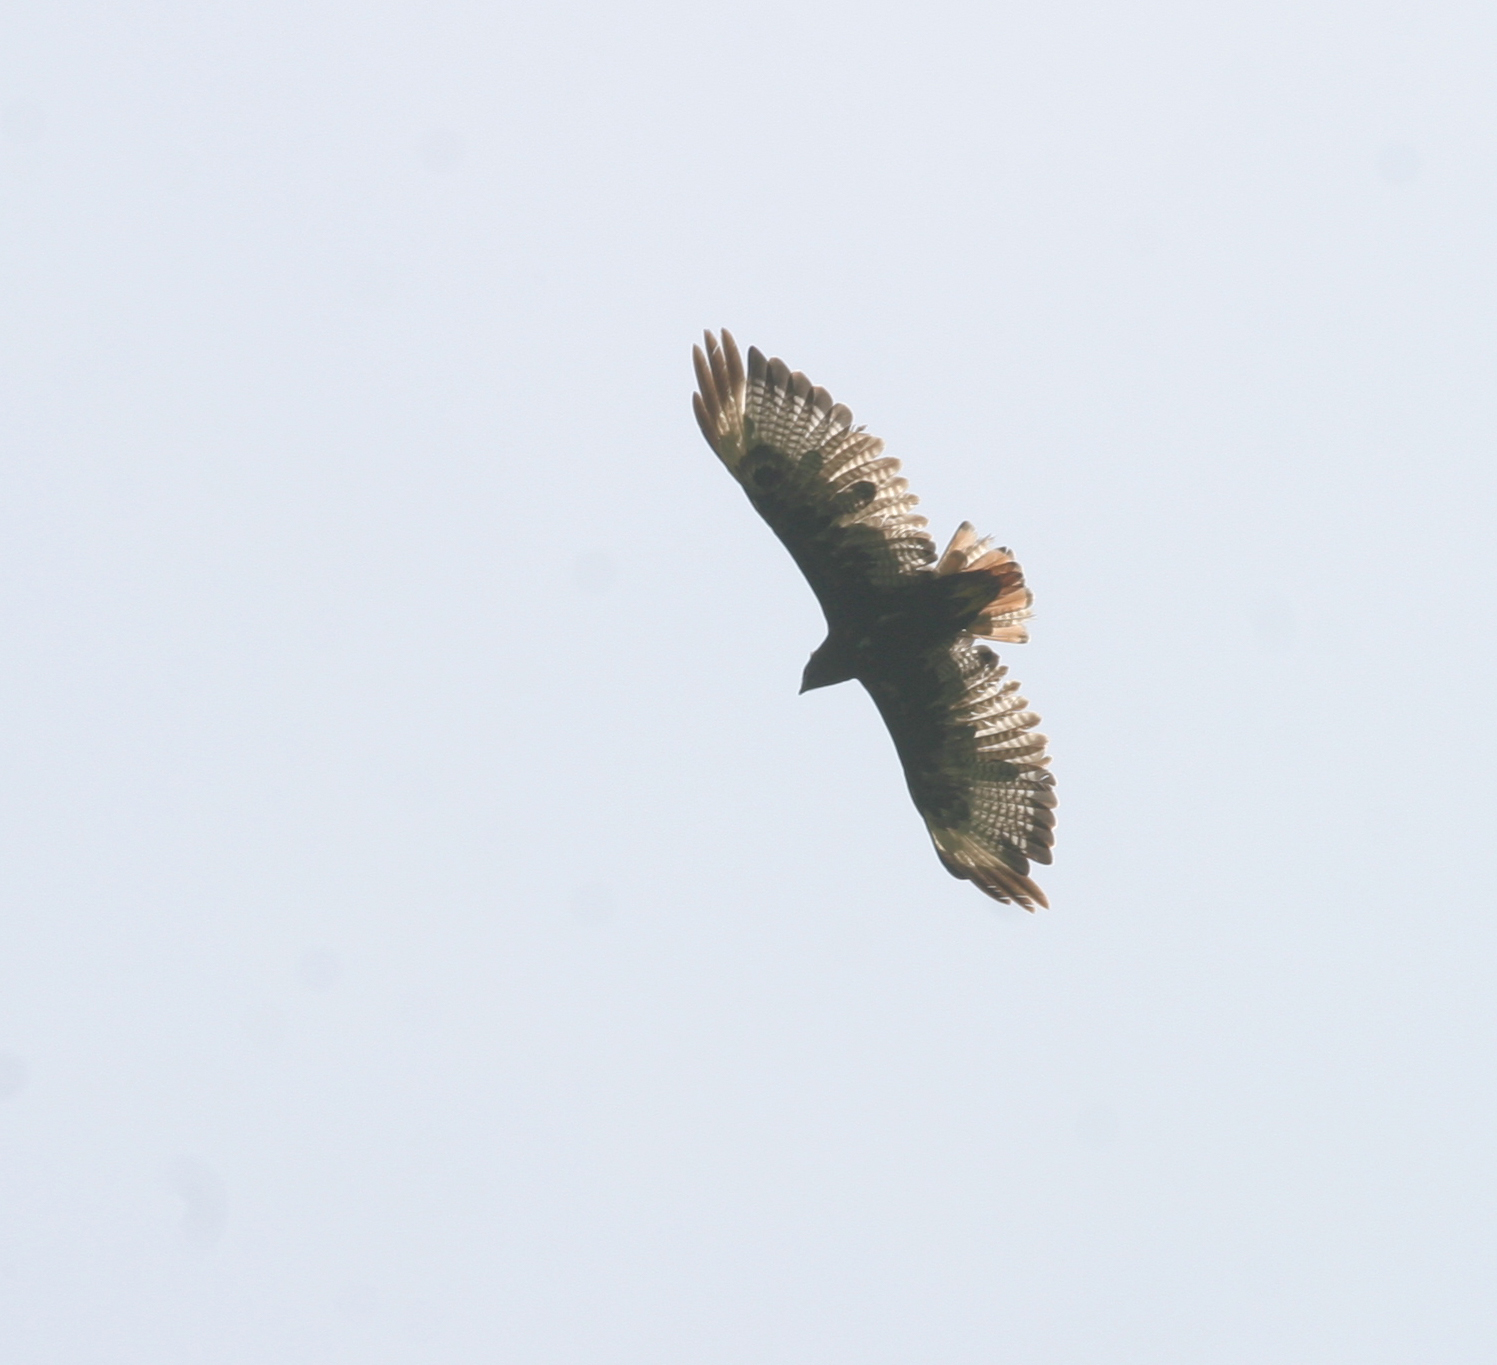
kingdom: Animalia
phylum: Chordata
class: Aves
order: Accipitriformes
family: Accipitridae
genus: Buteo
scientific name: Buteo augur
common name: Augur buzzard
